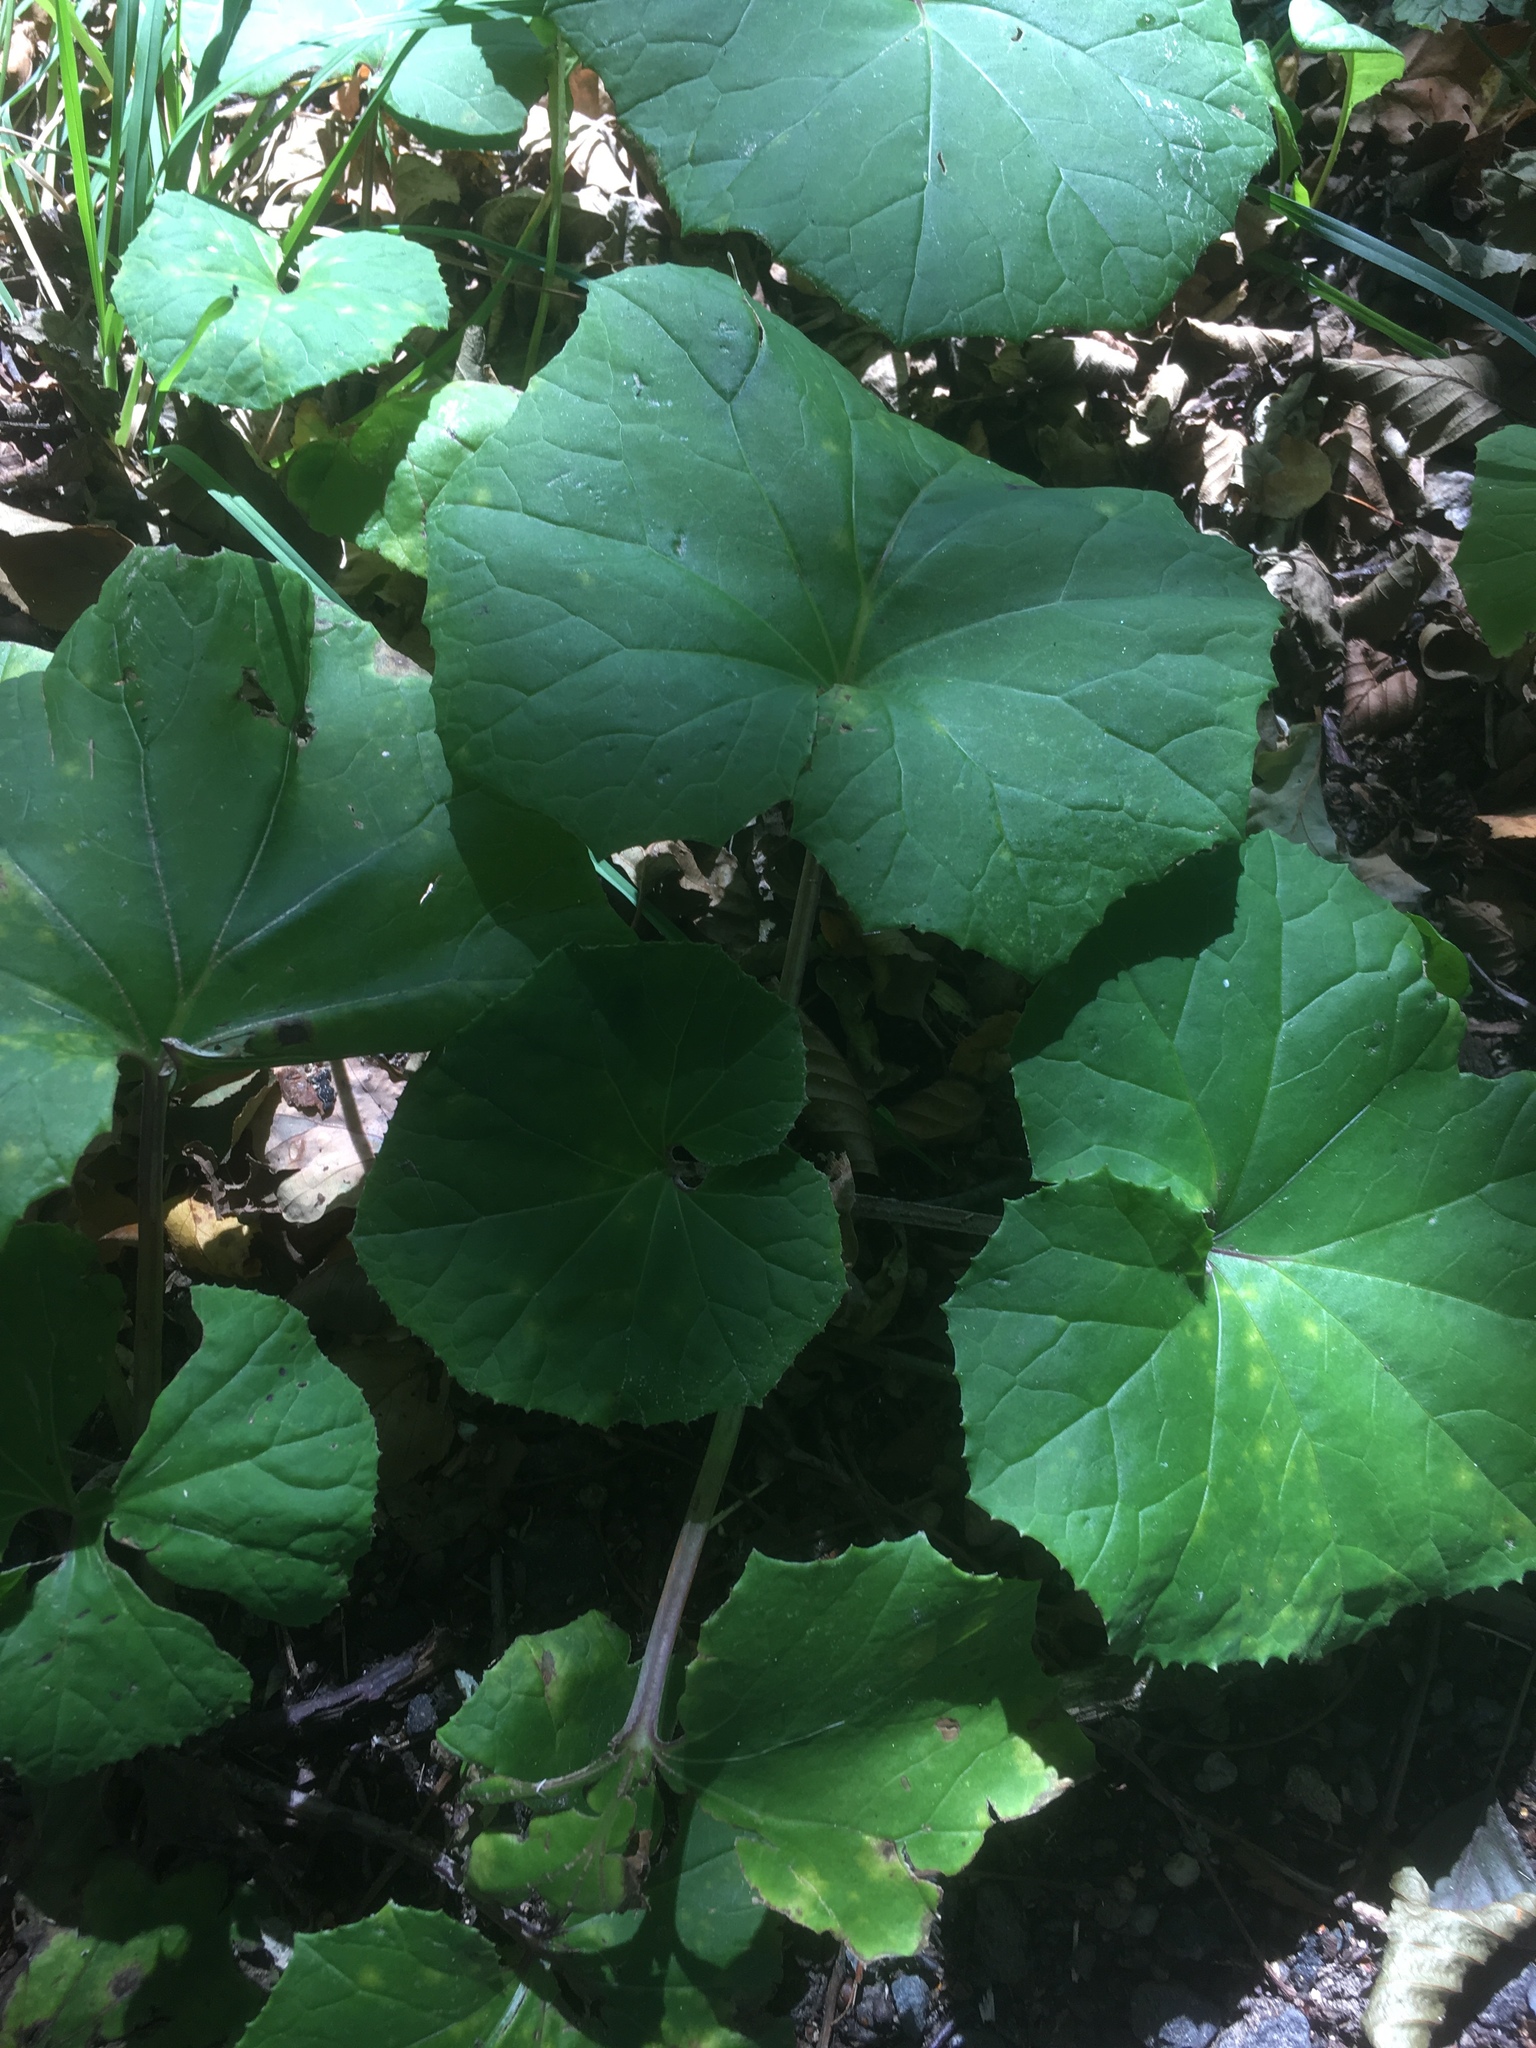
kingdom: Plantae
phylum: Tracheophyta
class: Magnoliopsida
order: Asterales
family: Asteraceae
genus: Tussilago
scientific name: Tussilago farfara
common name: Coltsfoot
